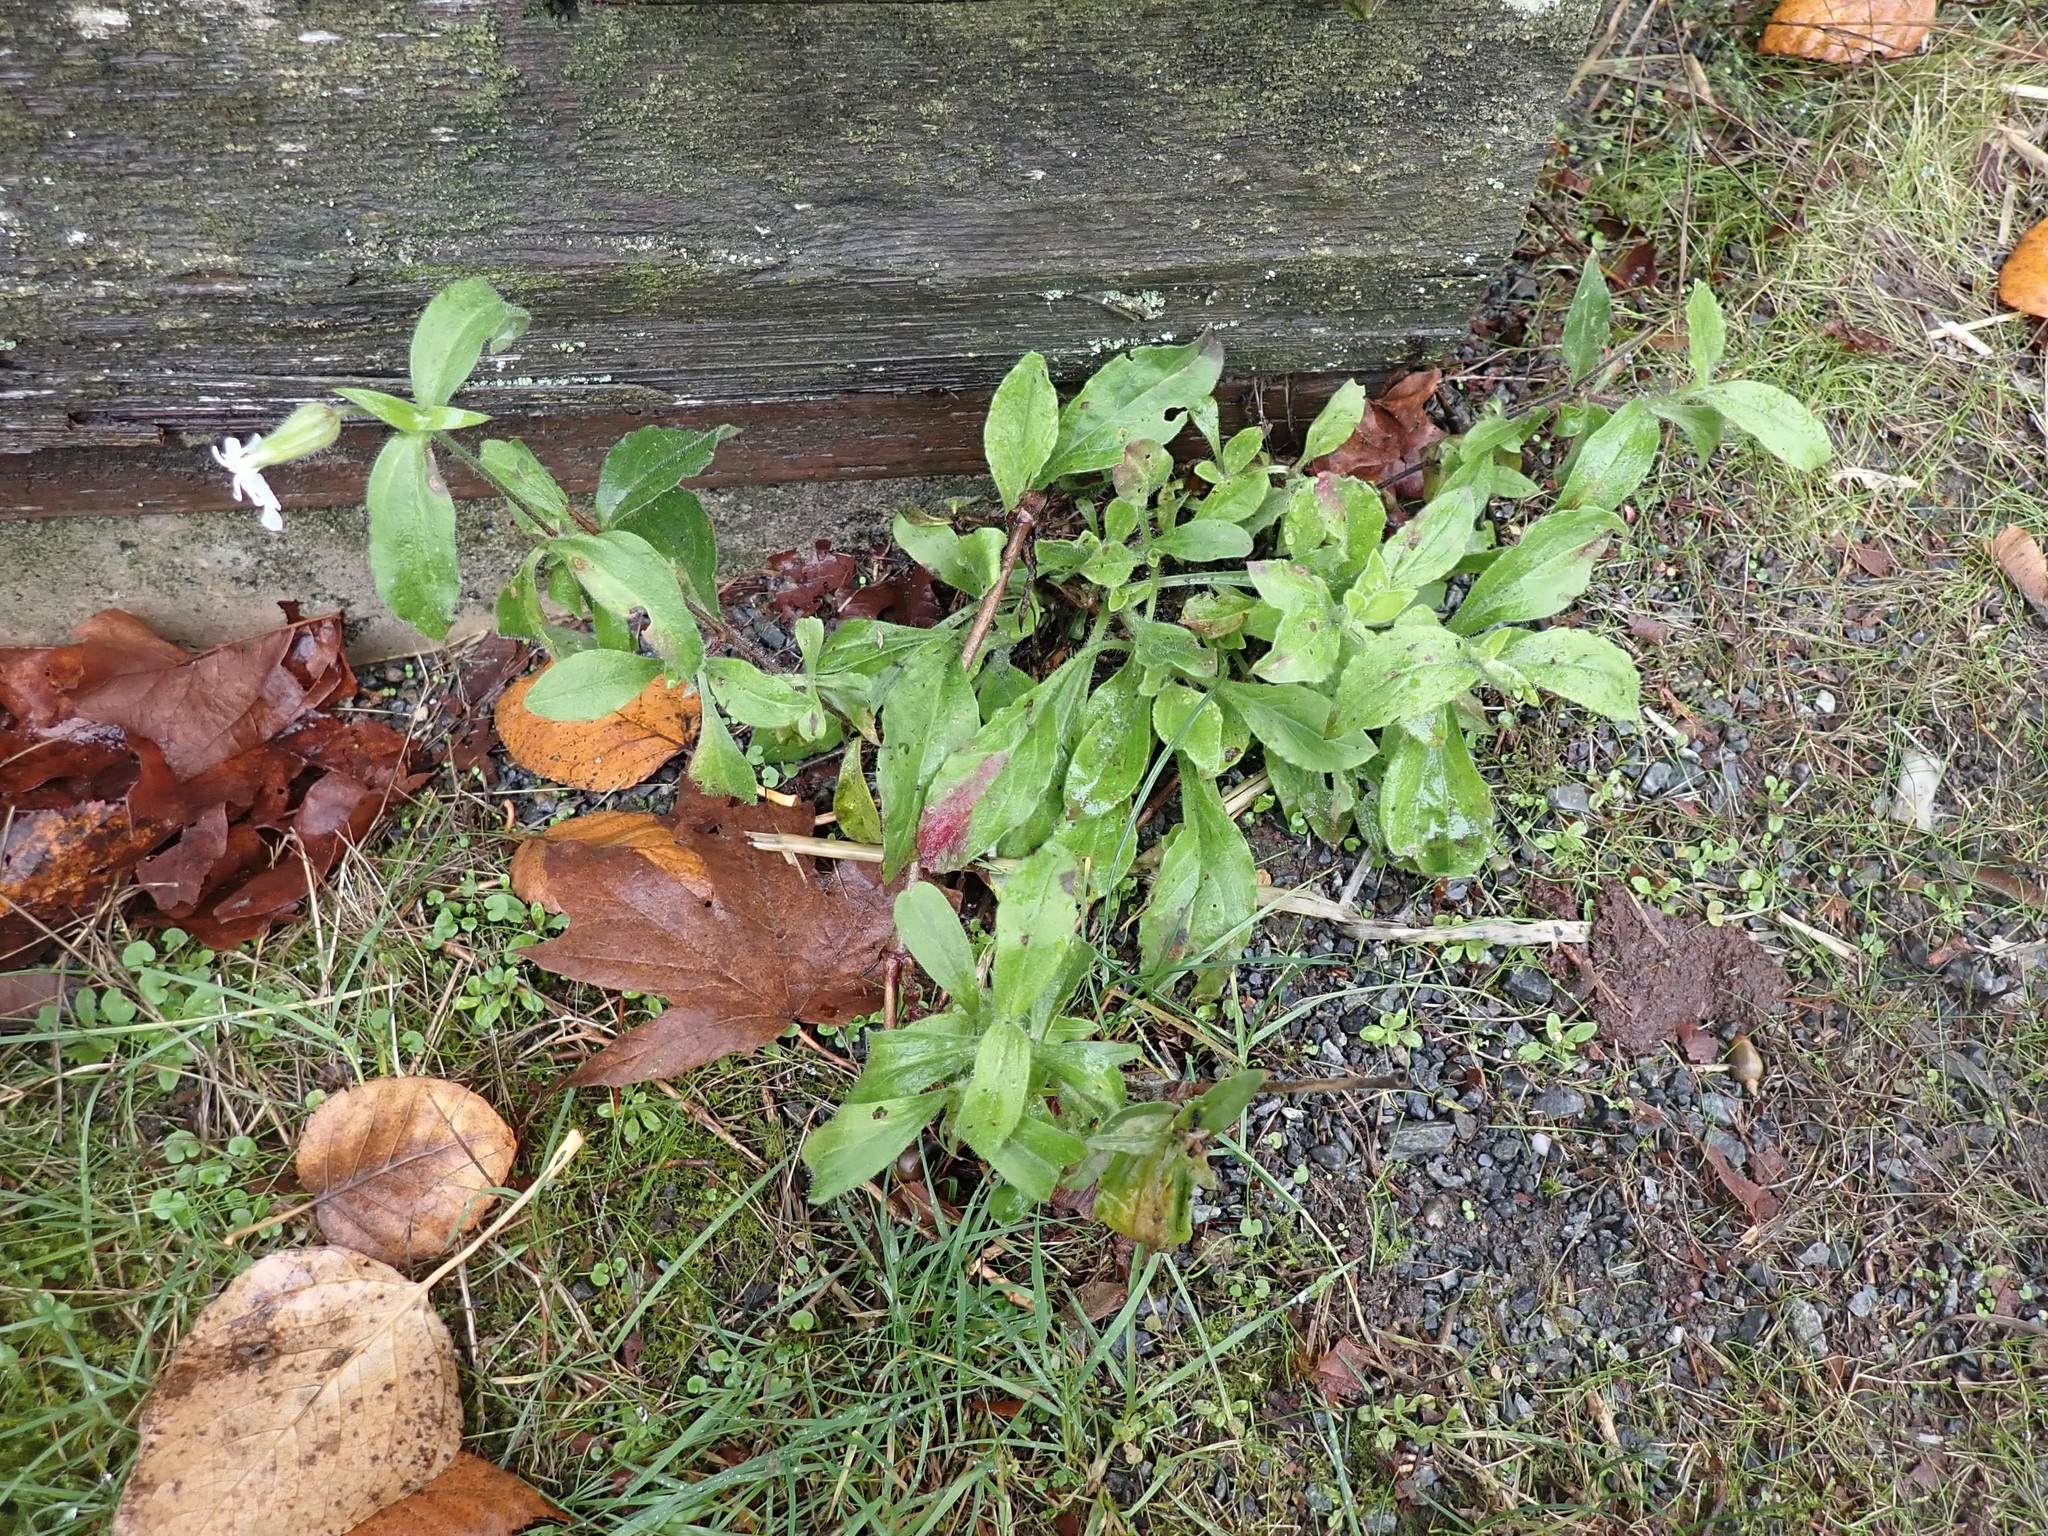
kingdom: Plantae
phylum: Tracheophyta
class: Magnoliopsida
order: Caryophyllales
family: Caryophyllaceae
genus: Silene
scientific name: Silene latifolia
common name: White campion
